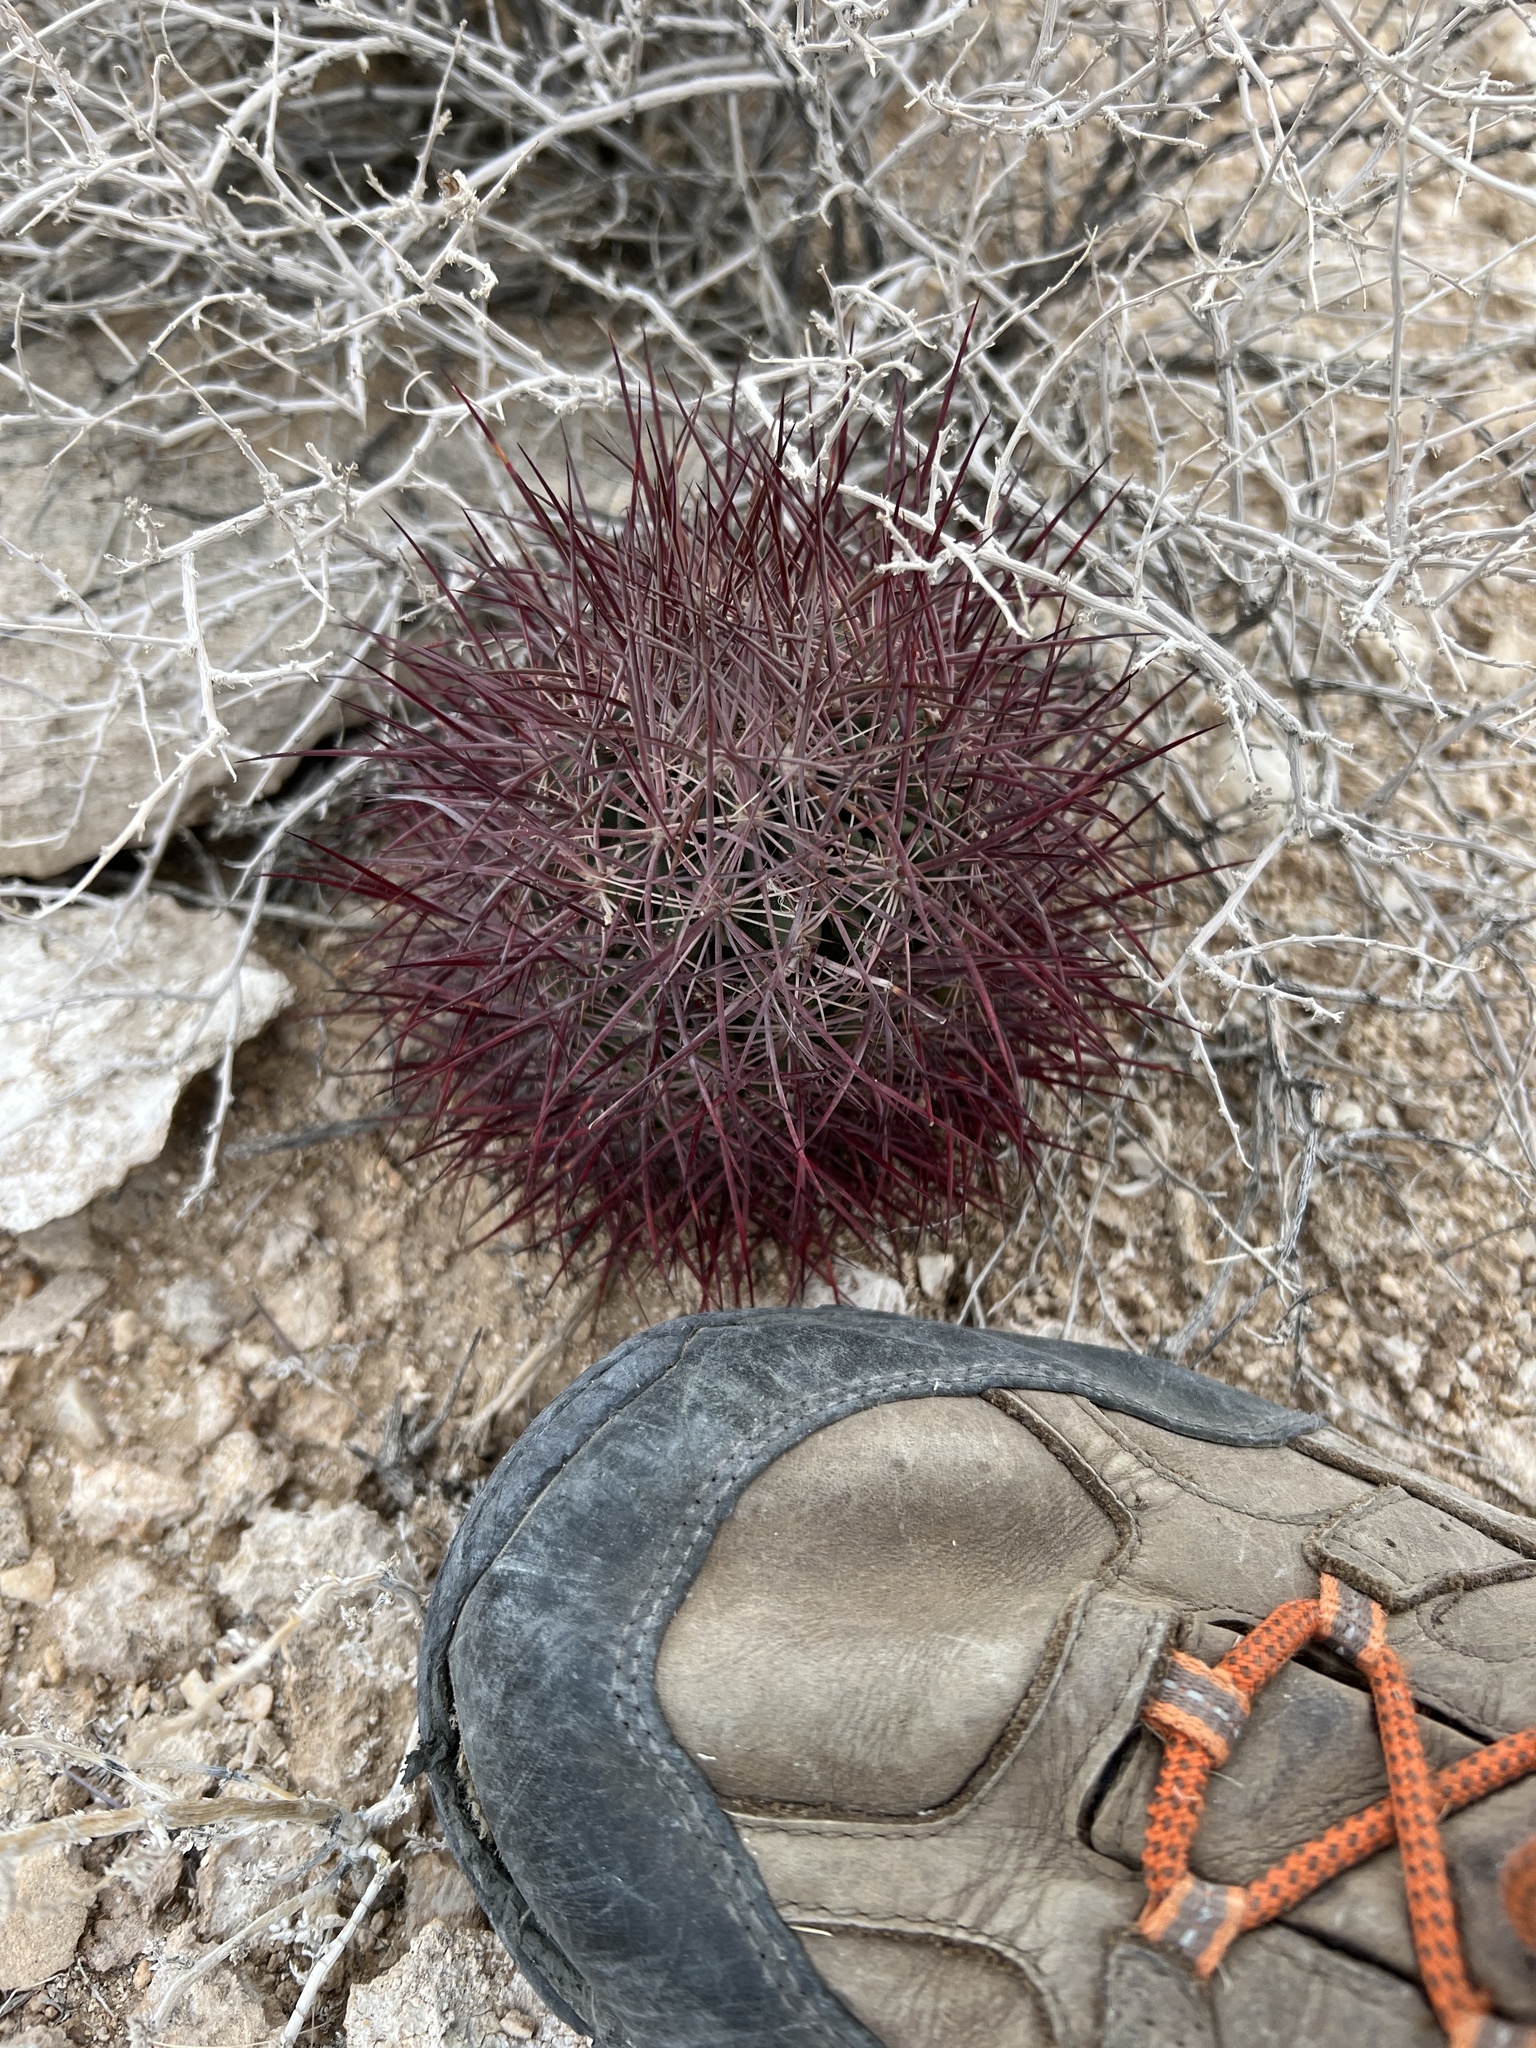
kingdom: Plantae
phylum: Tracheophyta
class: Magnoliopsida
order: Caryophyllales
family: Cactaceae
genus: Sclerocactus
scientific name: Sclerocactus johnsonii
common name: Eight-spine fishhook cactus
